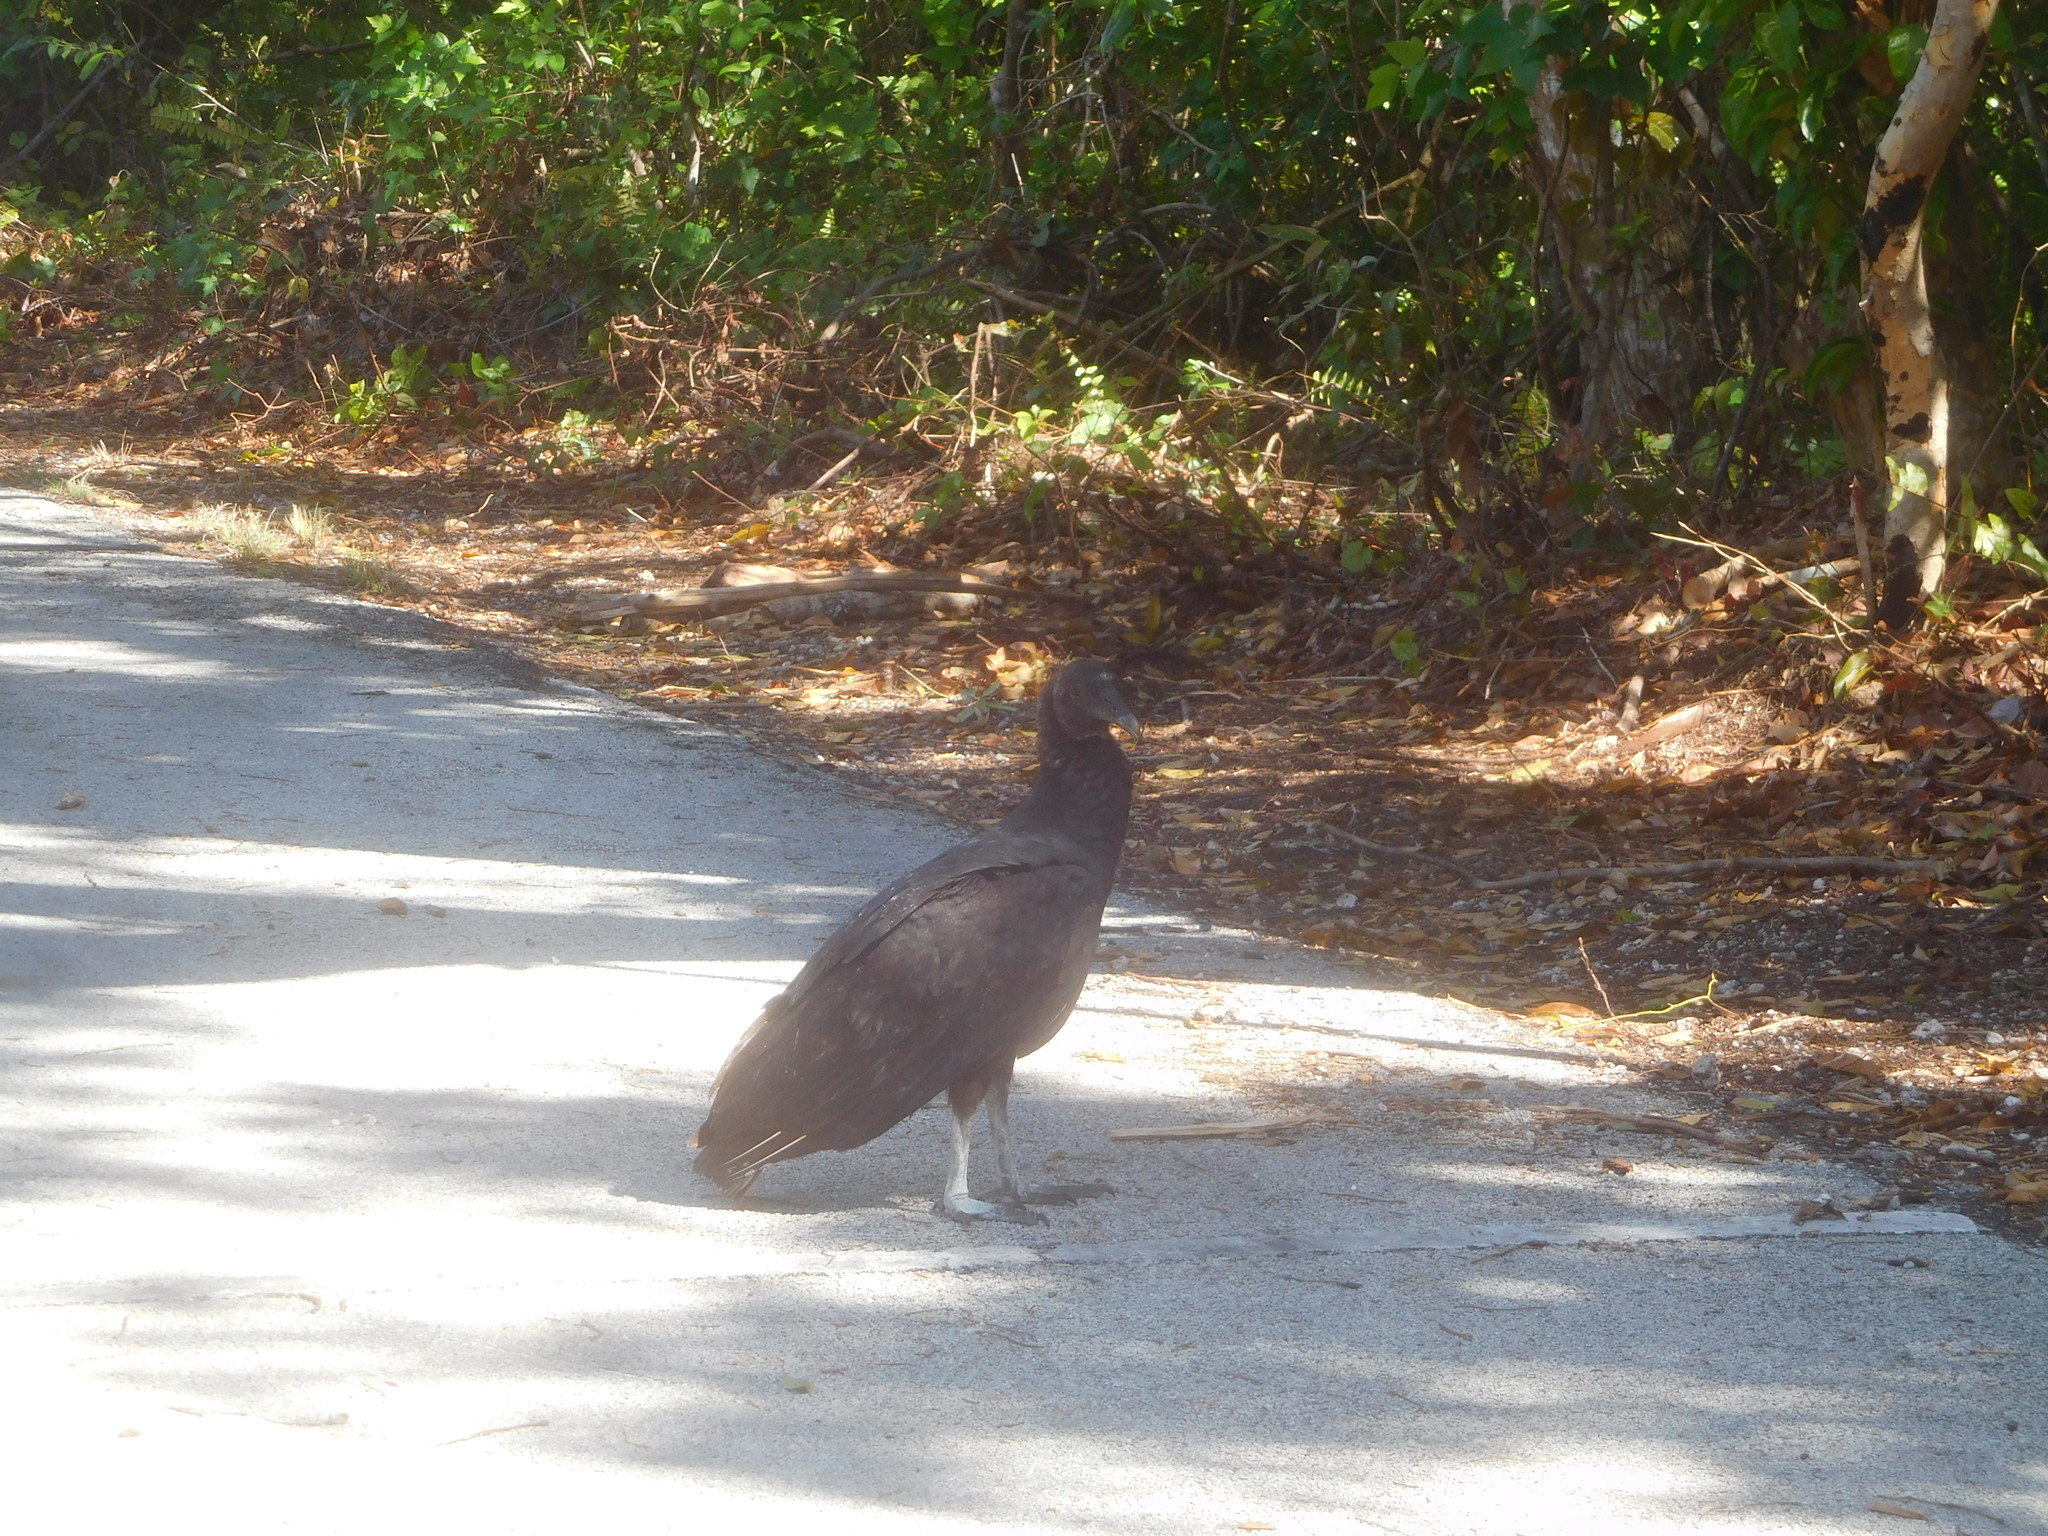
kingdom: Animalia
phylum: Chordata
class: Aves
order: Accipitriformes
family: Cathartidae
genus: Coragyps
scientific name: Coragyps atratus
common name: Black vulture
